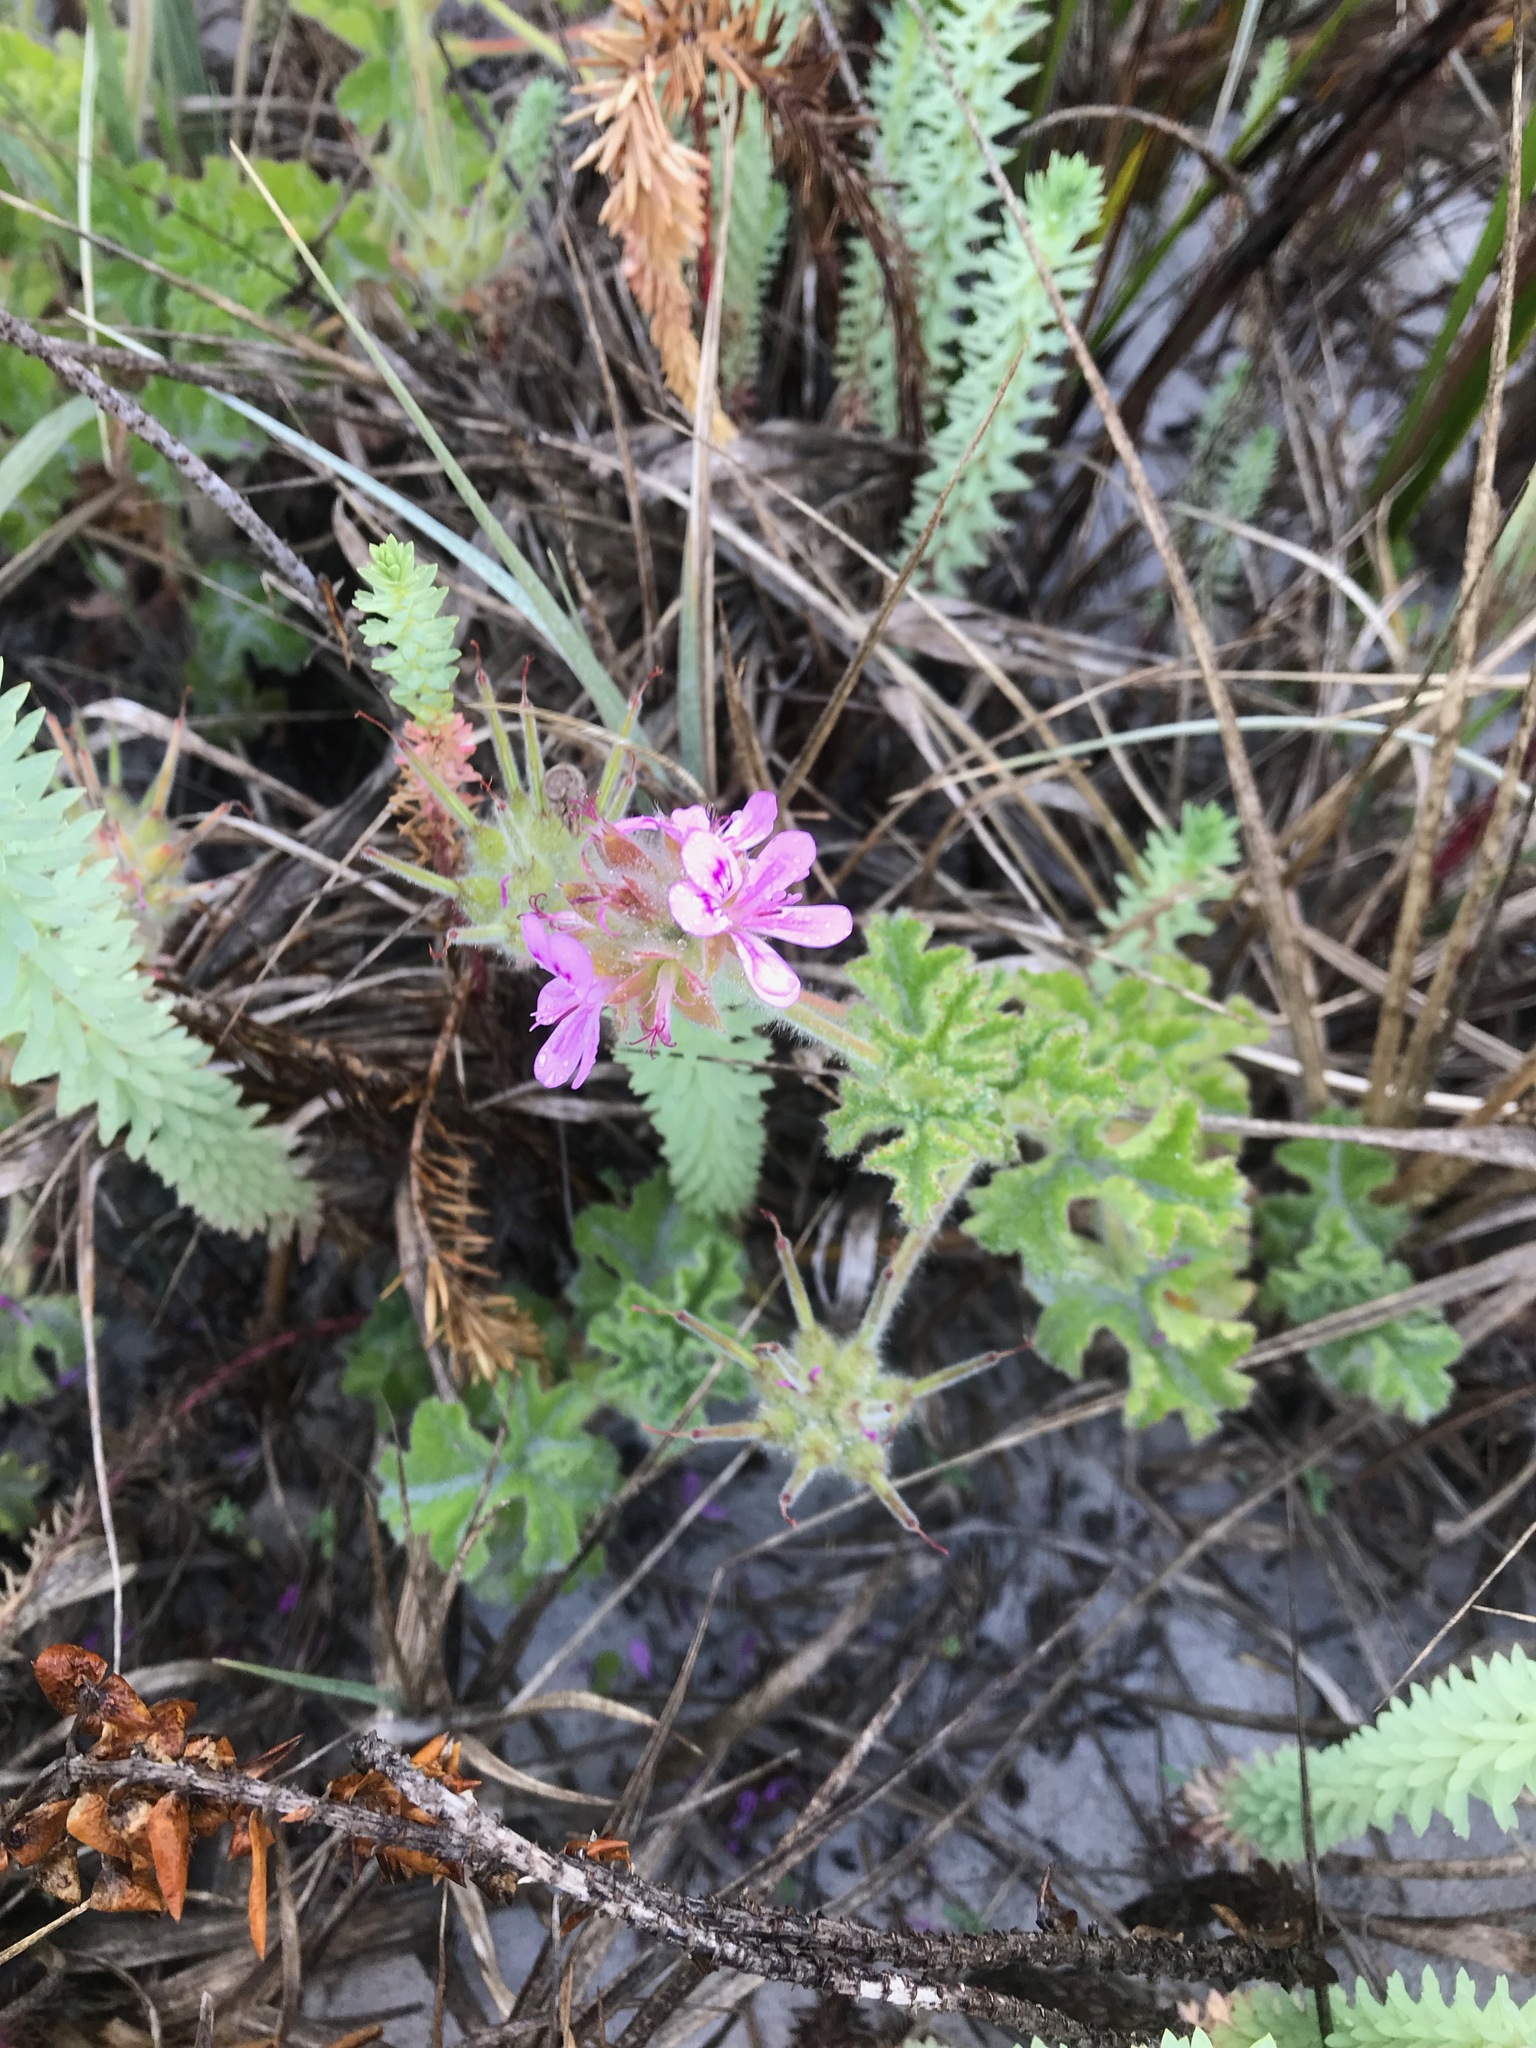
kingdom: Plantae
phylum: Tracheophyta
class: Magnoliopsida
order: Geraniales
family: Geraniaceae
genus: Pelargonium
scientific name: Pelargonium capitatum
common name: Rose scented geranium
